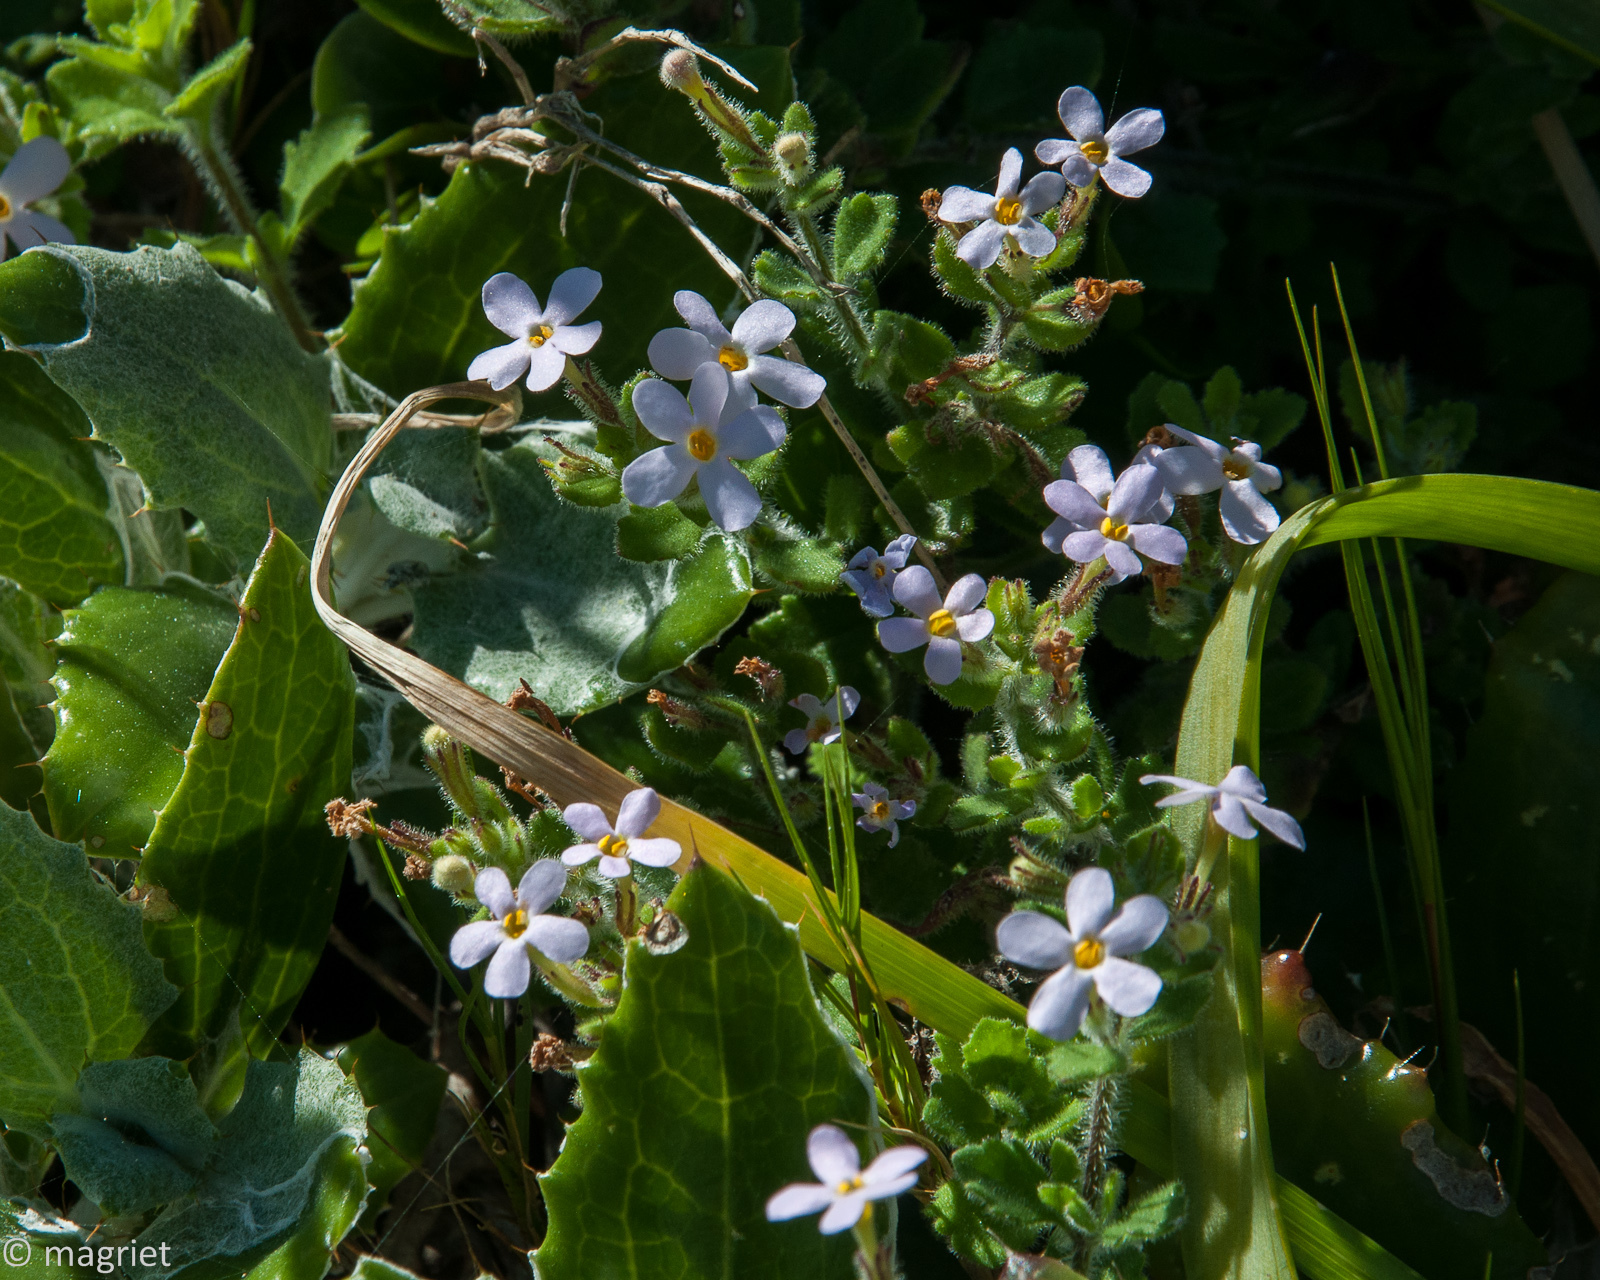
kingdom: Plantae
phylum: Tracheophyta
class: Magnoliopsida
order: Lamiales
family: Scrophulariaceae
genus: Chaenostoma
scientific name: Chaenostoma hispidum
